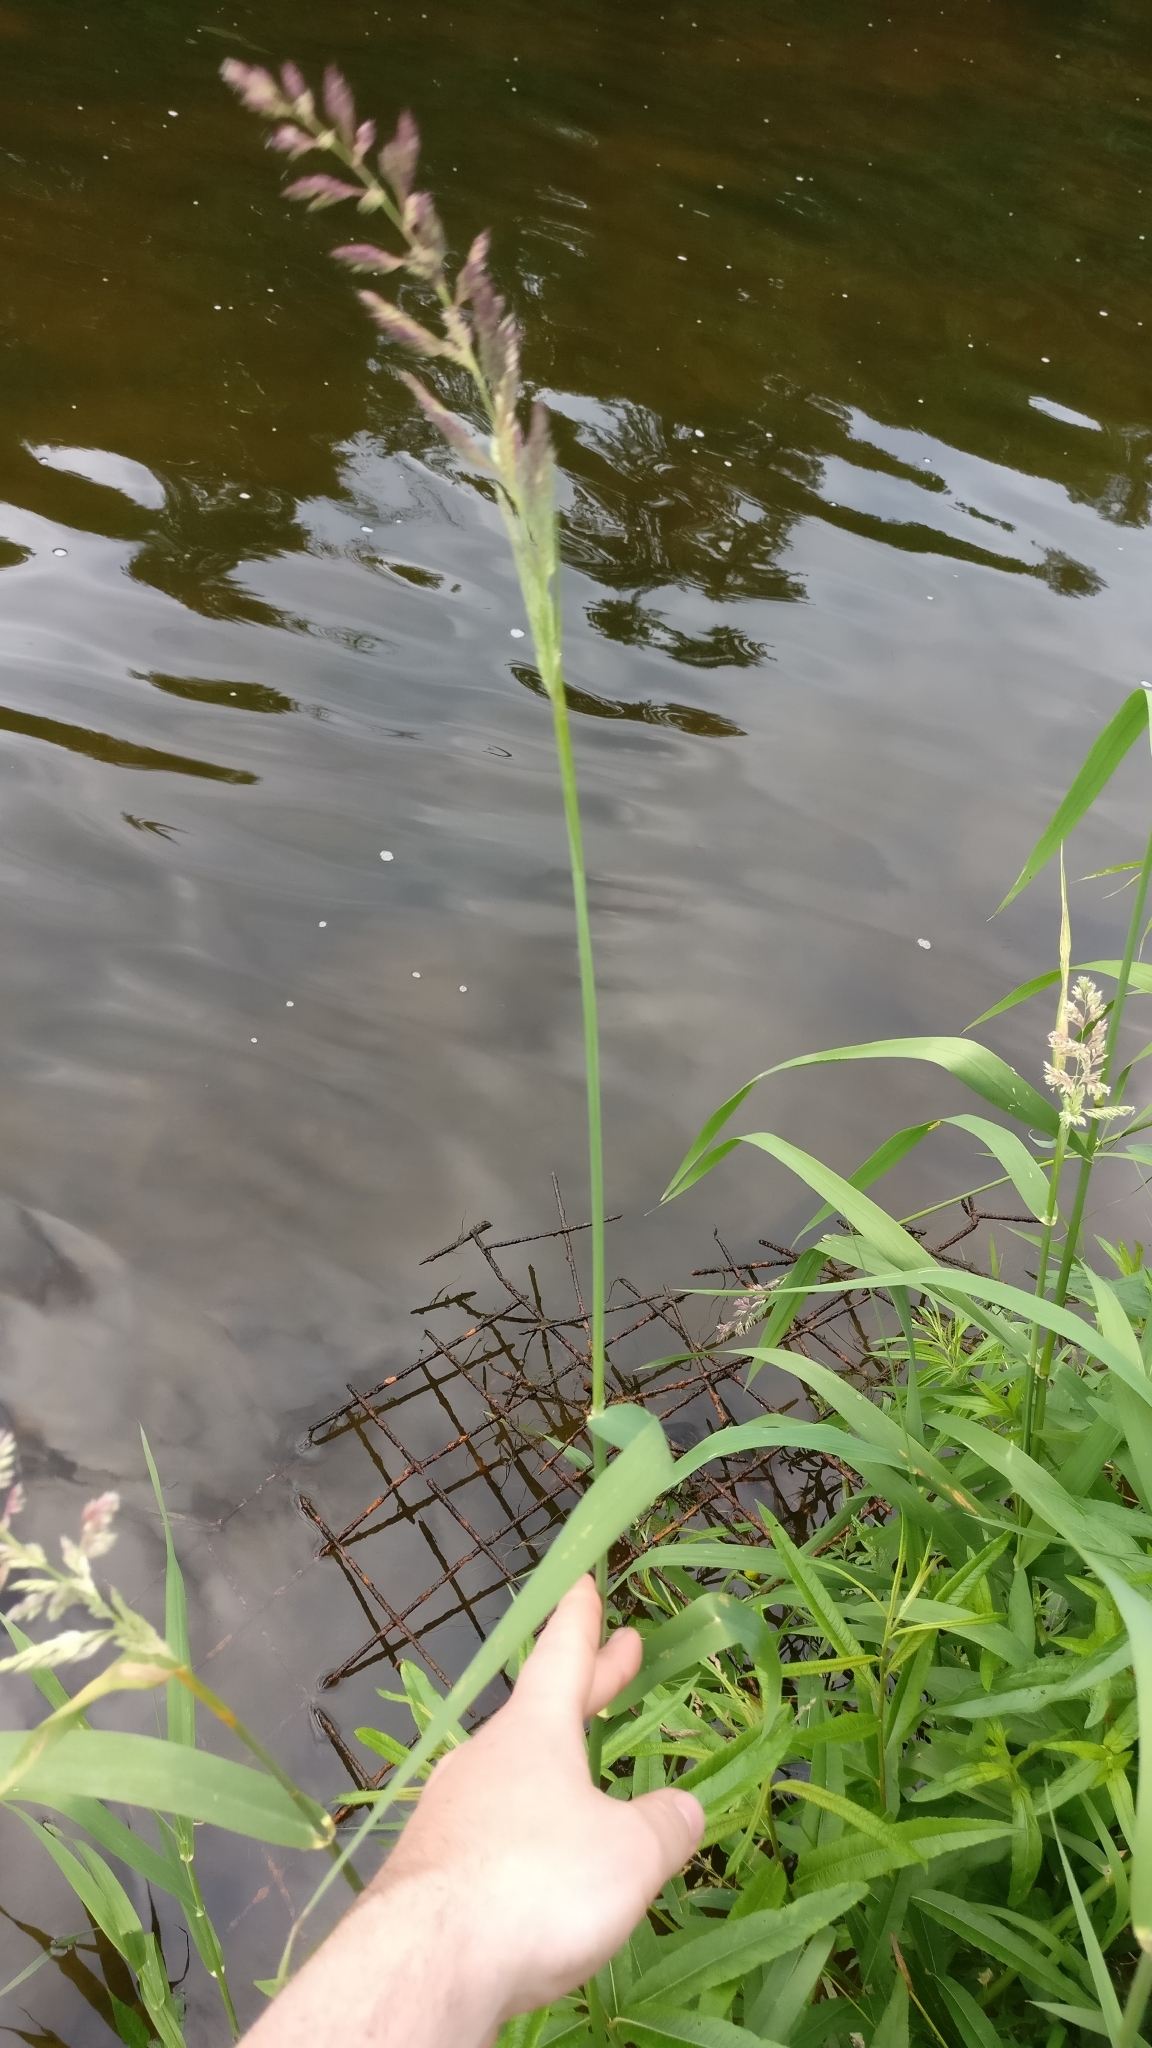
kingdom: Plantae
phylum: Tracheophyta
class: Liliopsida
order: Poales
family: Poaceae
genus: Phalaris
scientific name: Phalaris arundinacea
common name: Reed canary-grass
